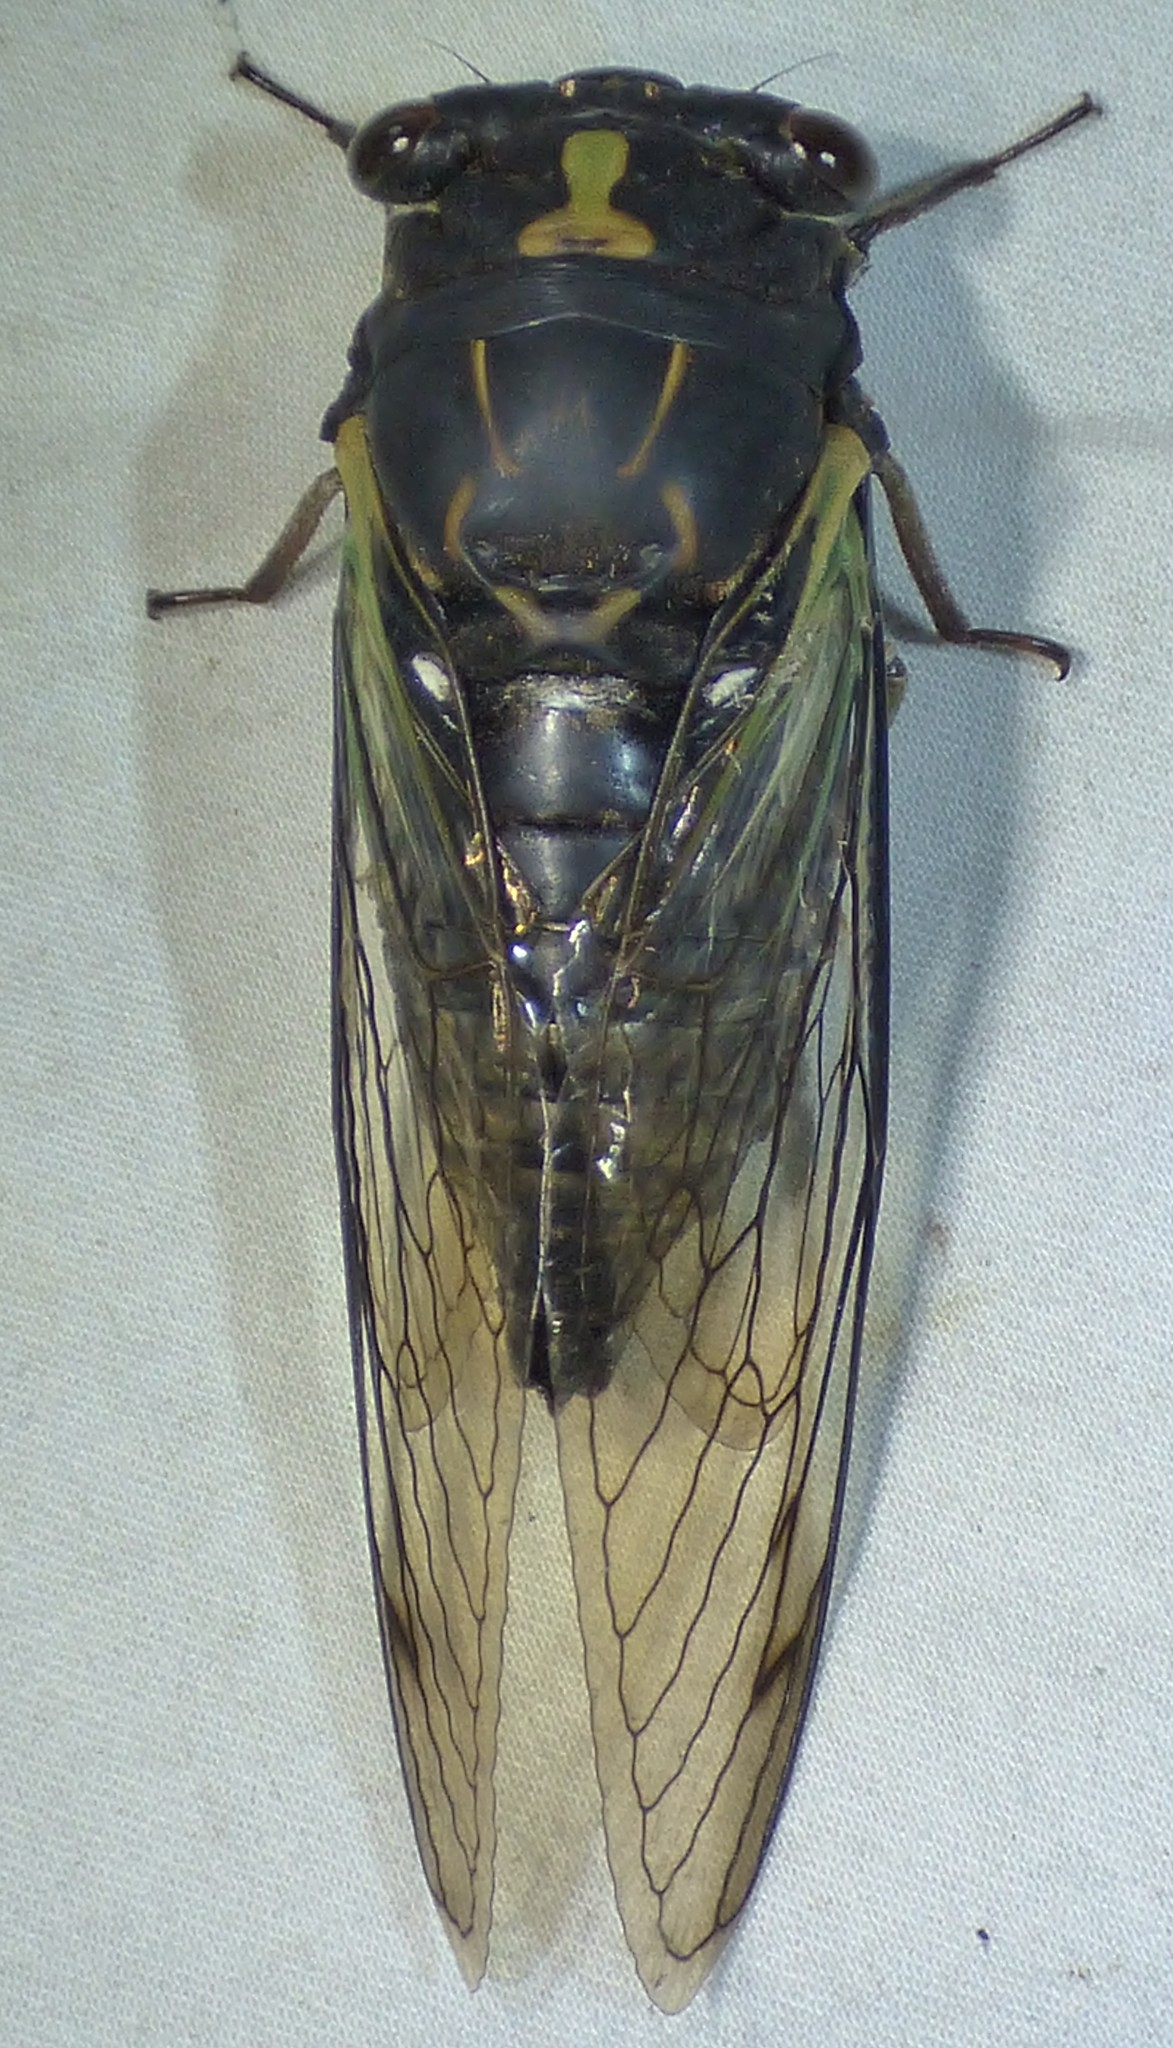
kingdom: Animalia
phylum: Arthropoda
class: Insecta
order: Hemiptera
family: Cicadidae
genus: Neotibicen
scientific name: Neotibicen lyricen
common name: Lyric cicada
